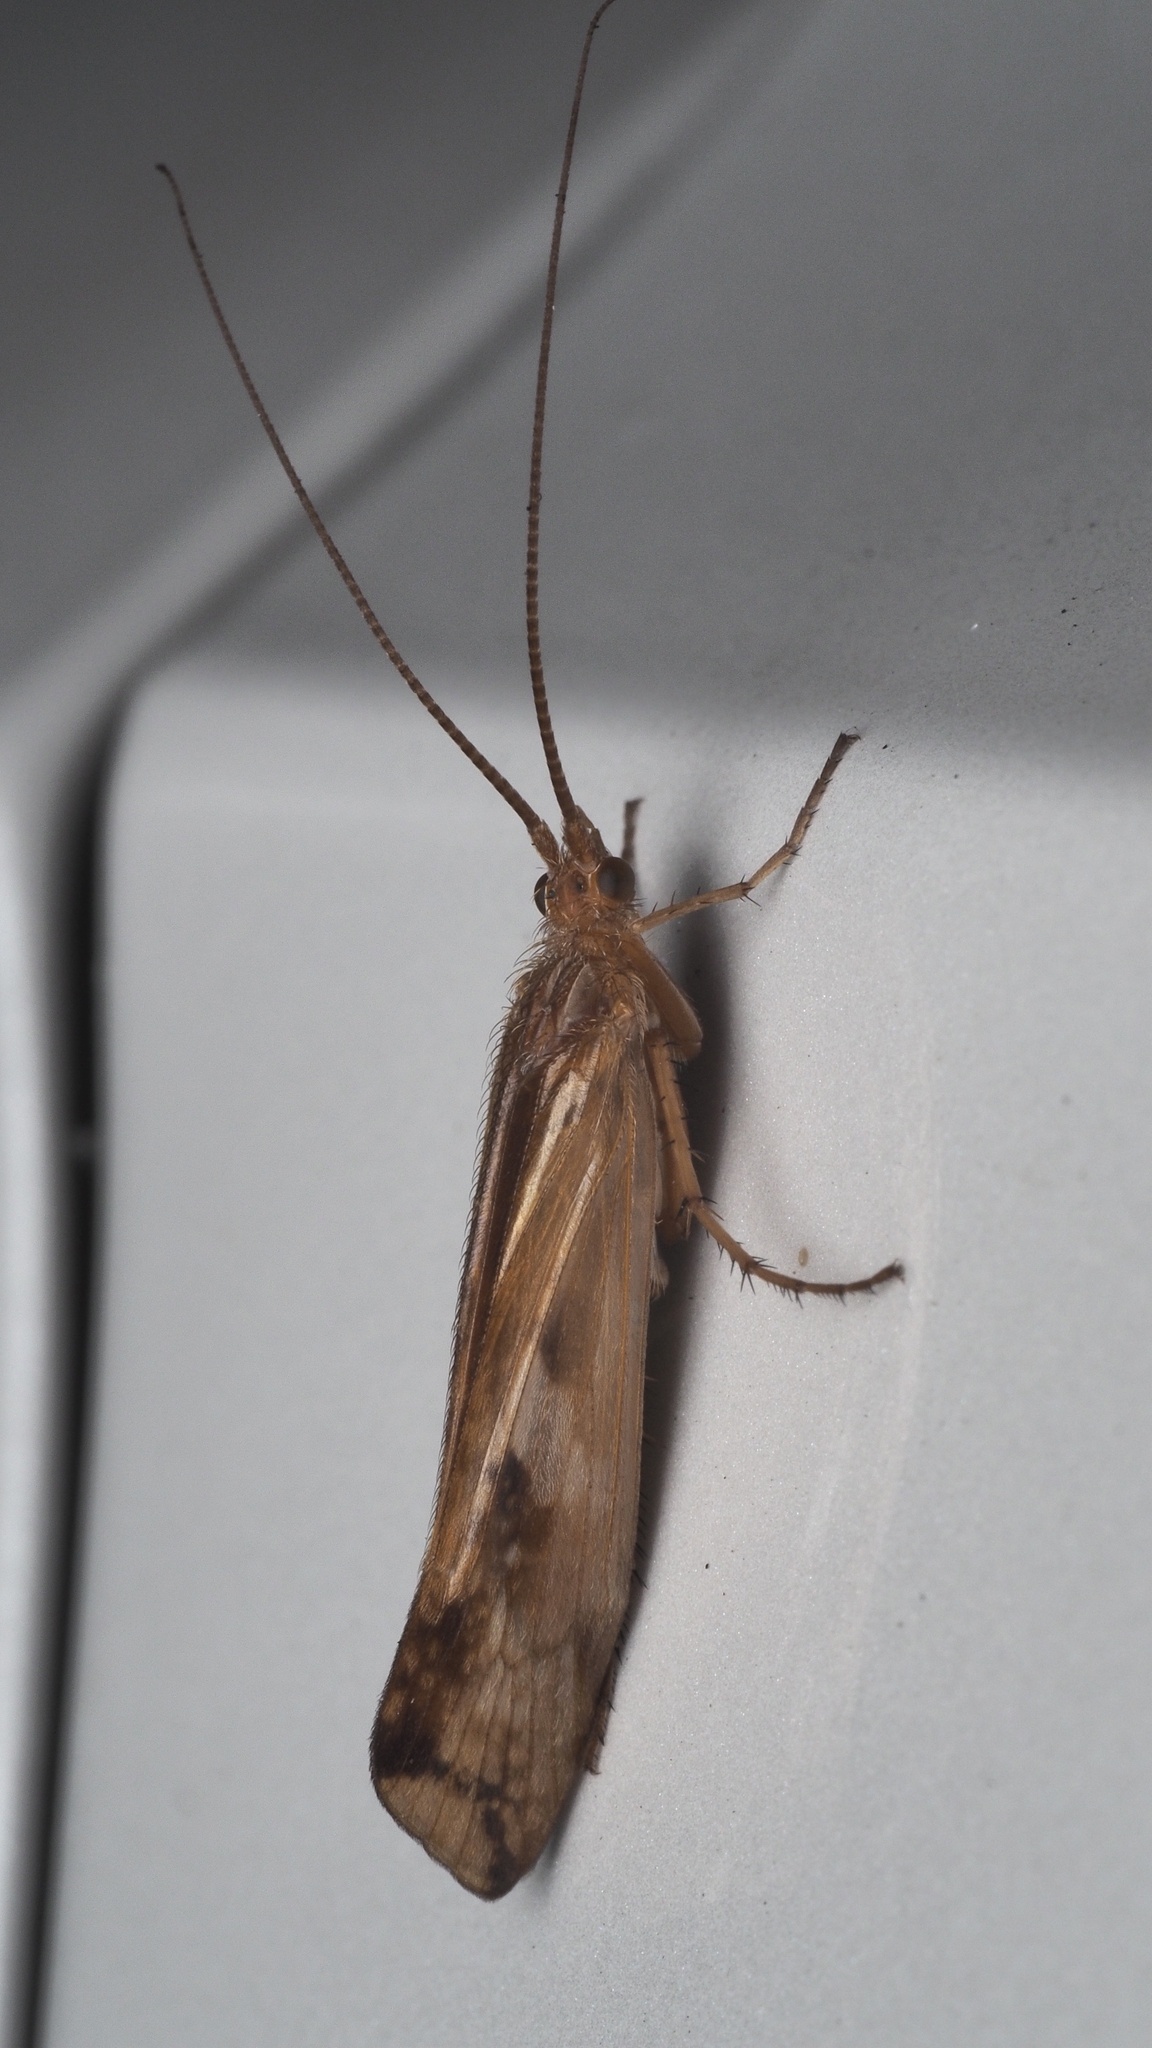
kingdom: Animalia
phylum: Arthropoda
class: Insecta
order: Trichoptera
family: Limnephilidae
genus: Limnephilus
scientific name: Limnephilus lunatus
